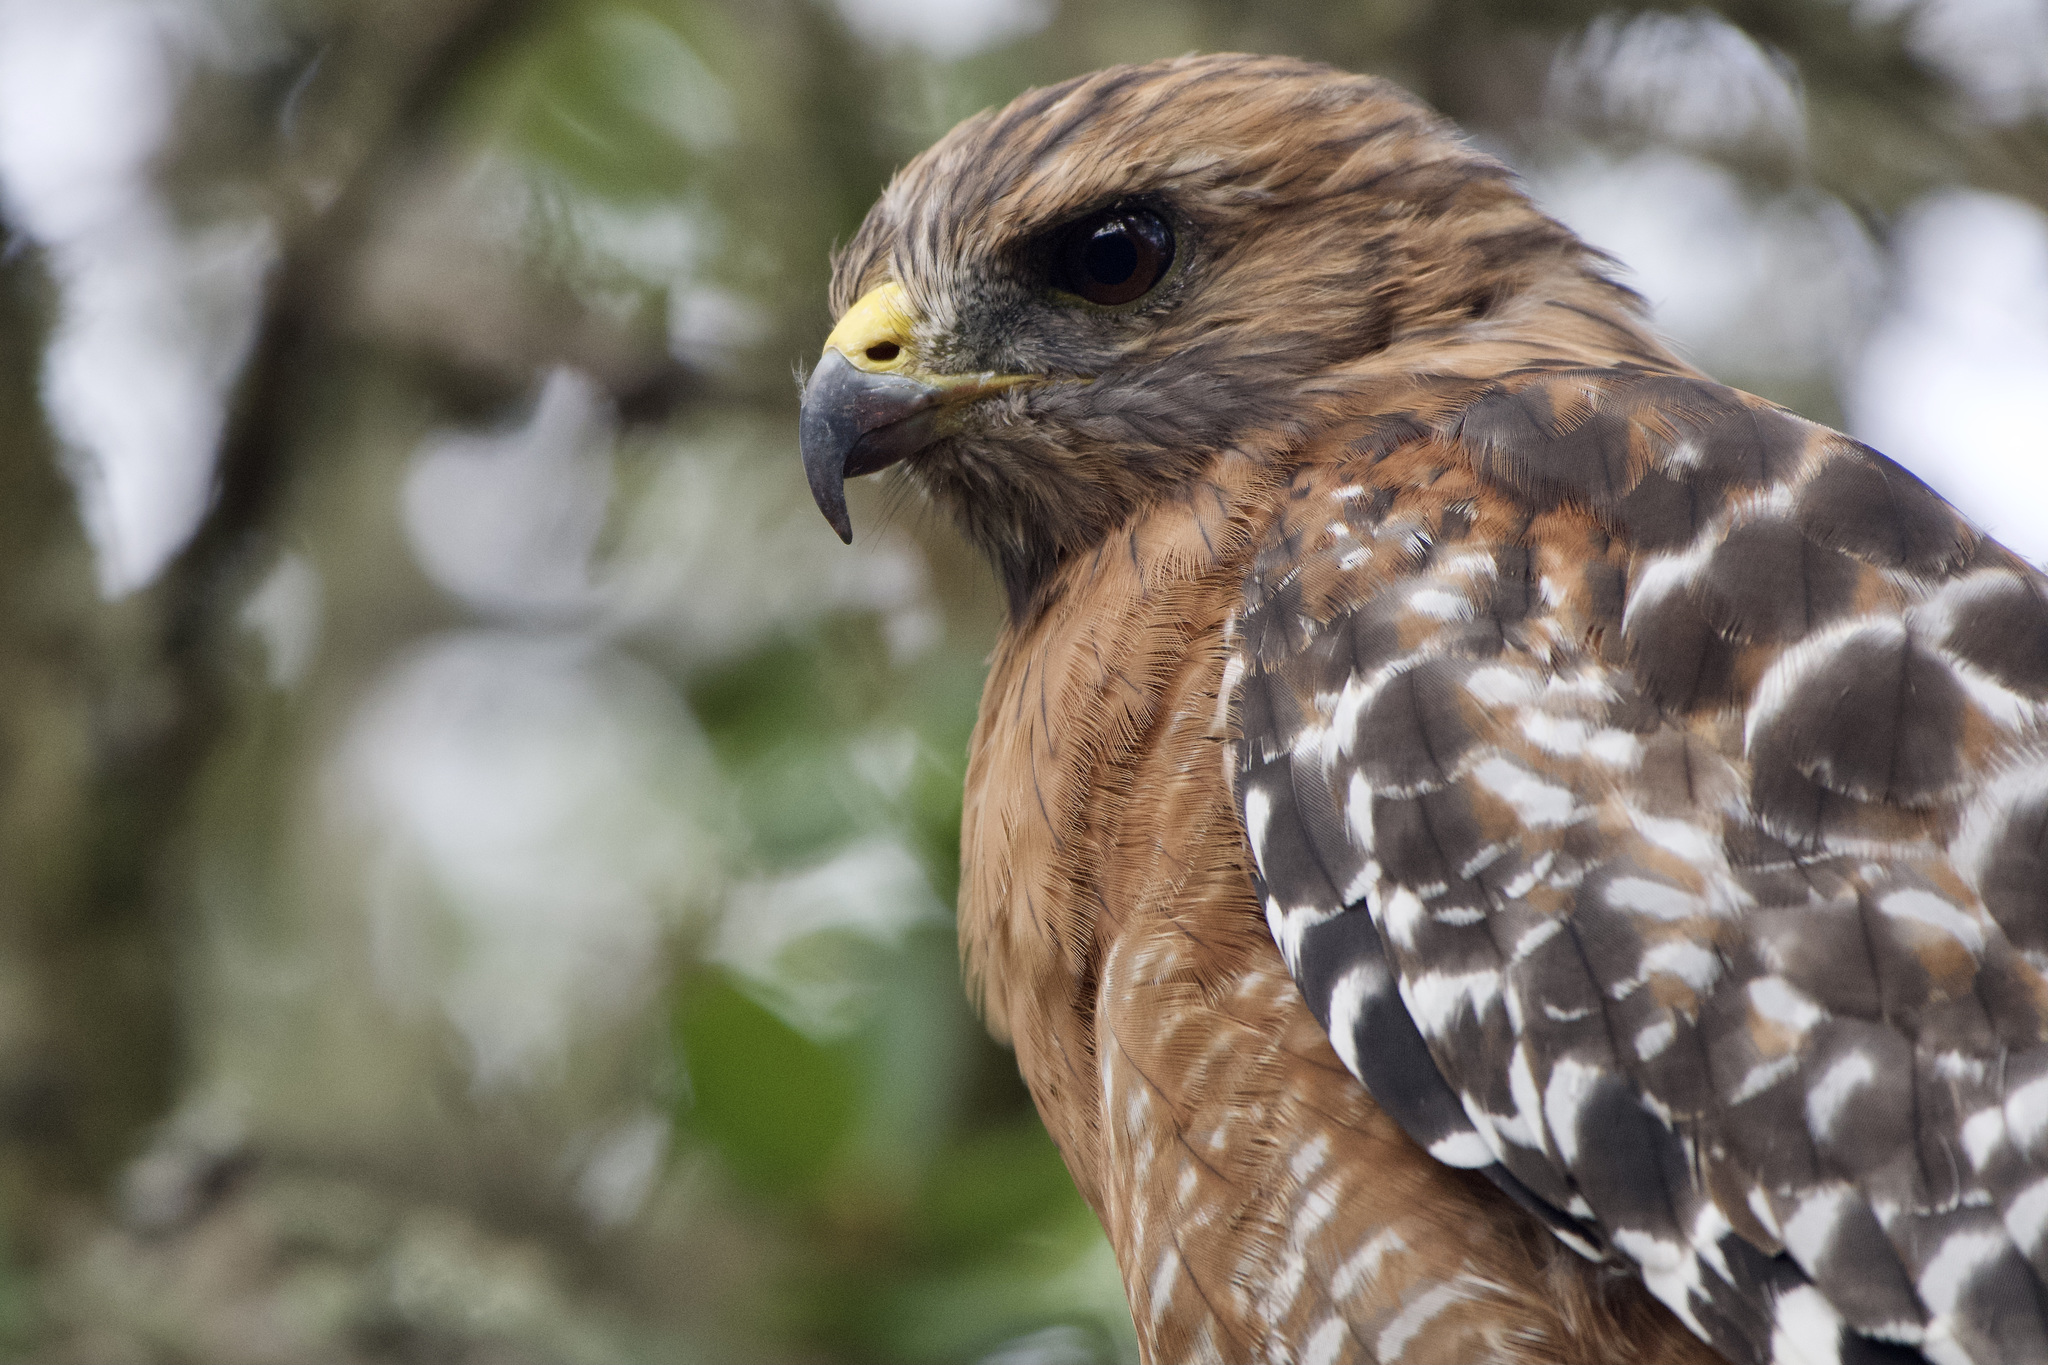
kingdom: Animalia
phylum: Chordata
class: Aves
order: Accipitriformes
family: Accipitridae
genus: Buteo
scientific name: Buteo lineatus
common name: Red-shouldered hawk
